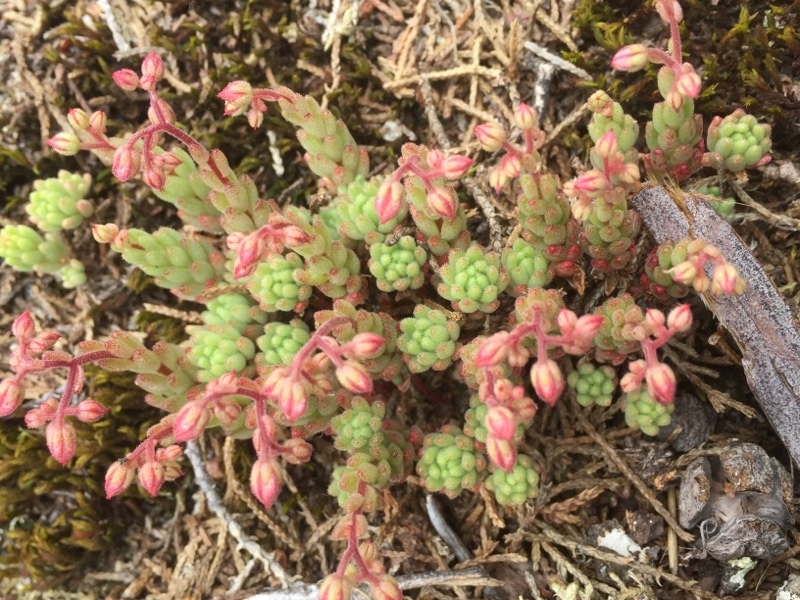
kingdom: Plantae
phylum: Tracheophyta
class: Magnoliopsida
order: Saxifragales
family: Crassulaceae
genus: Sedum
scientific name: Sedum hirsutum
